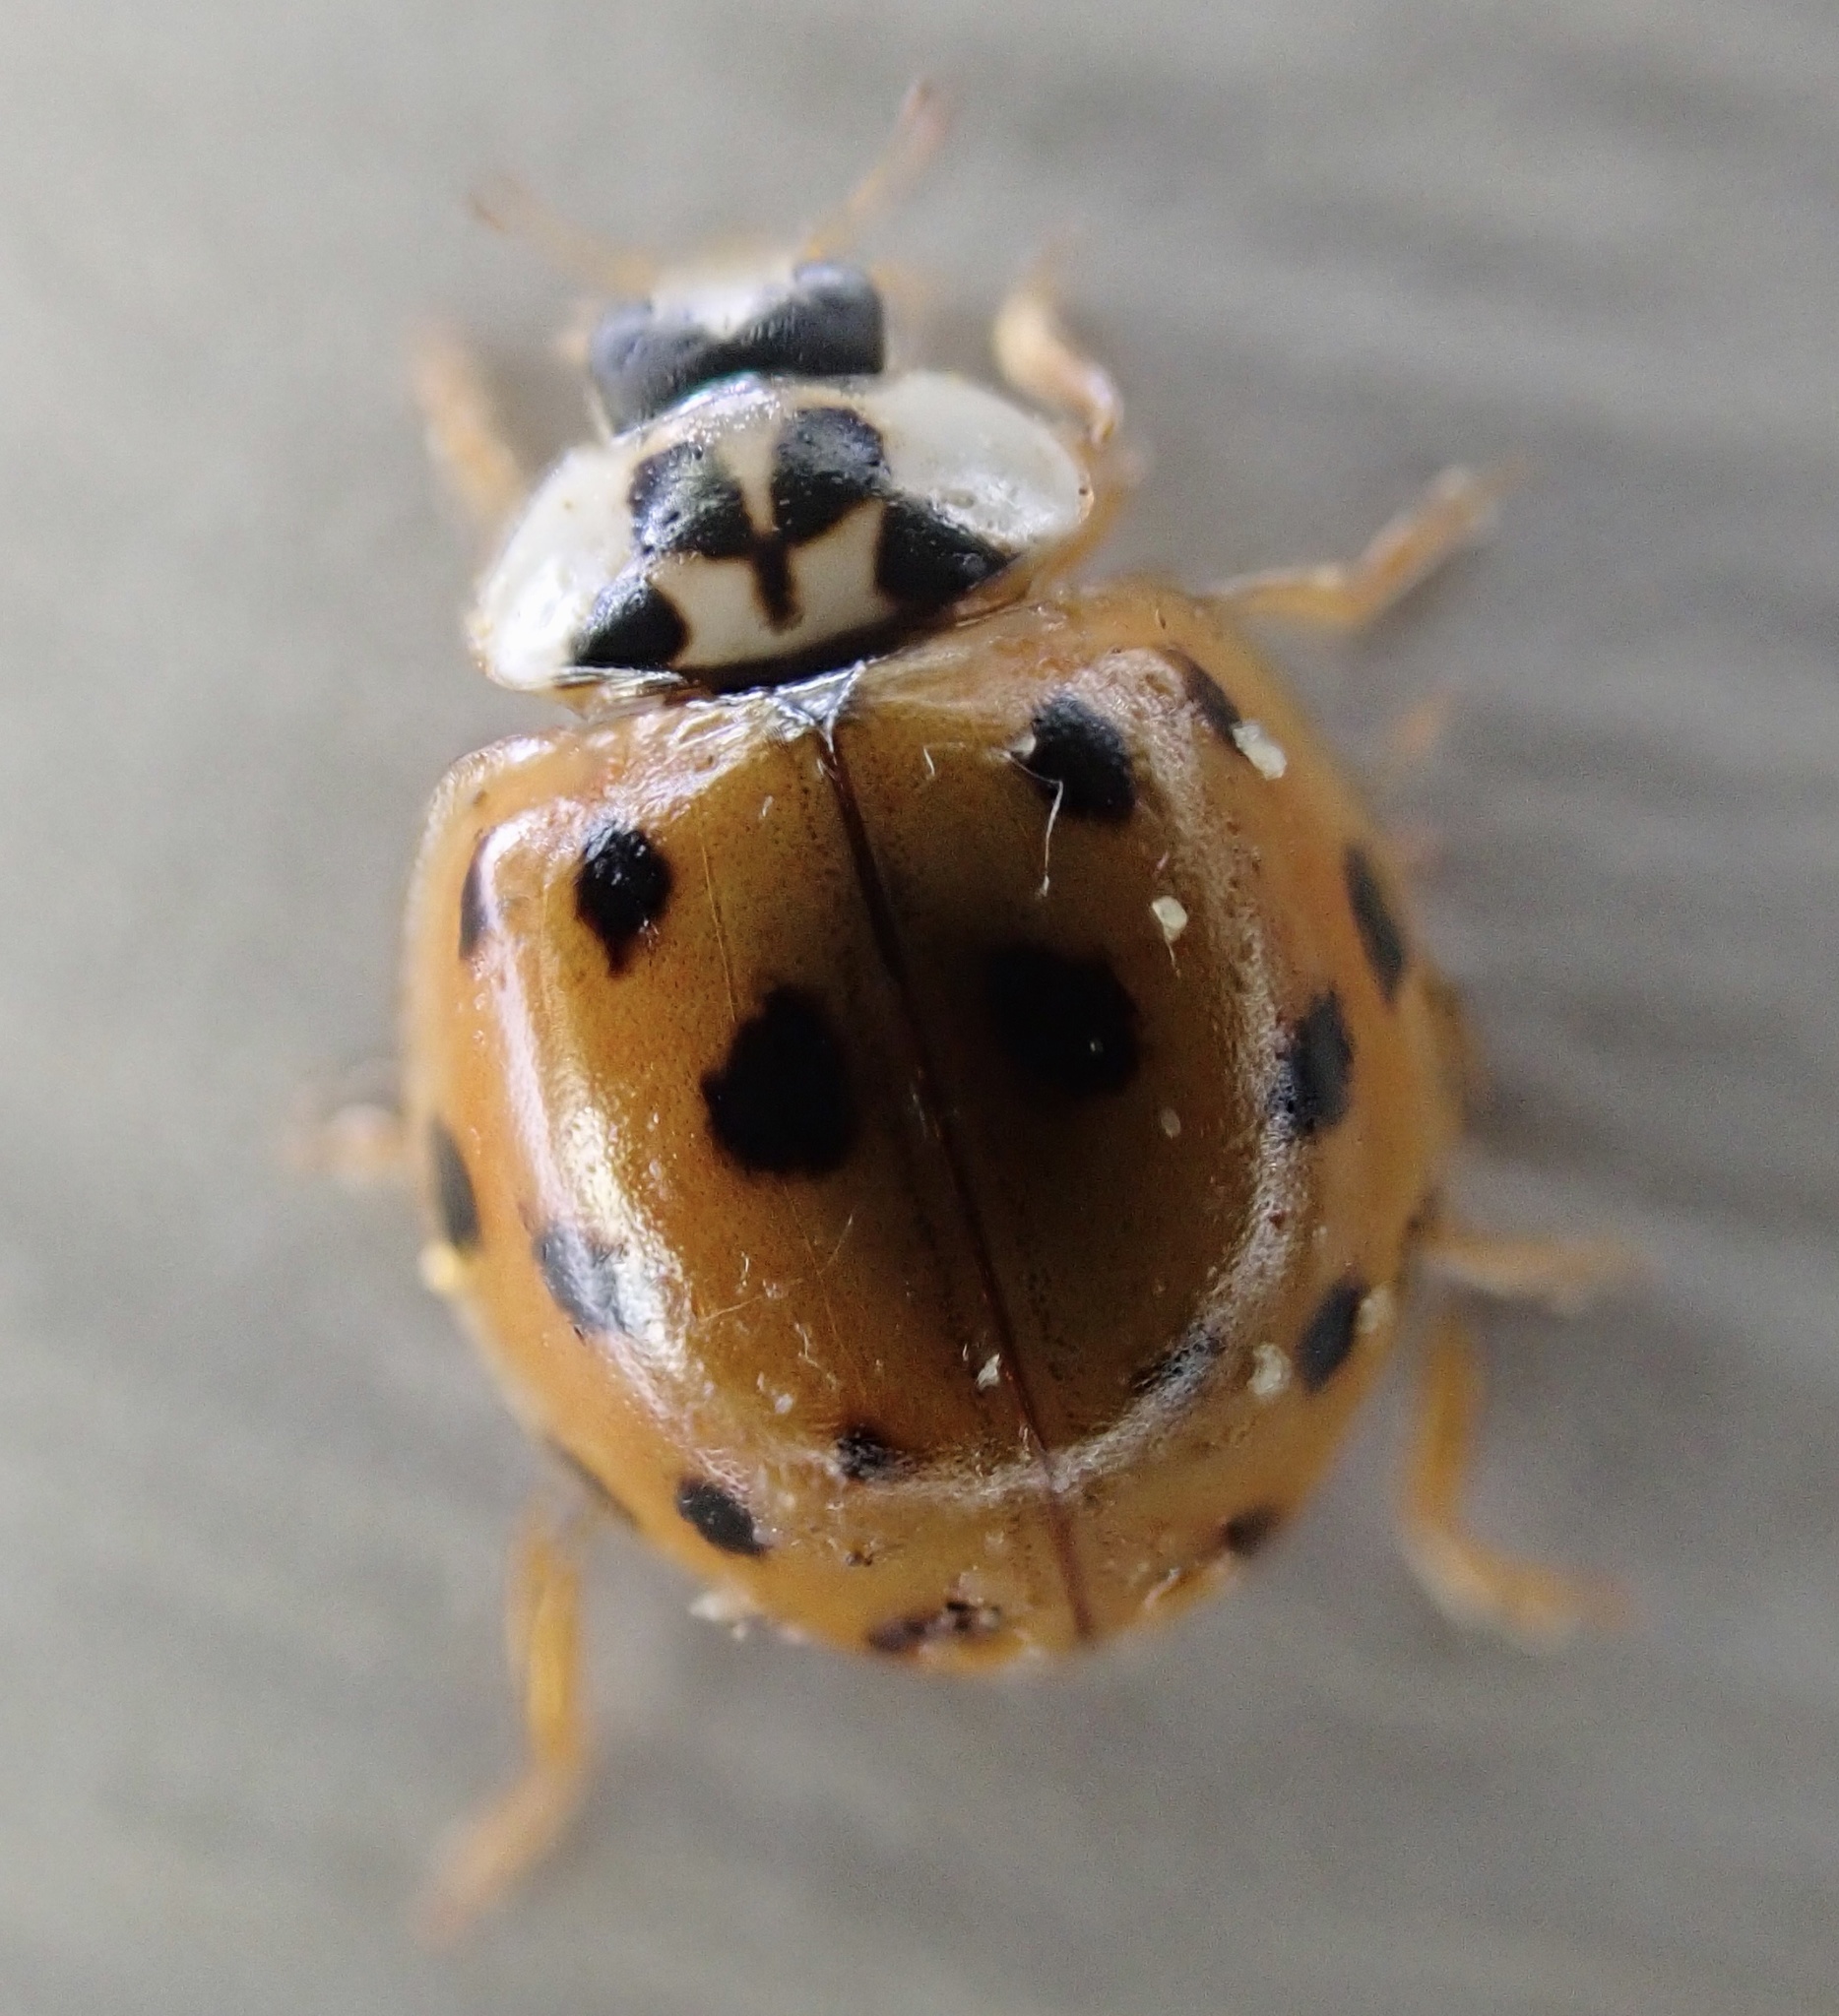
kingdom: Animalia
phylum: Arthropoda
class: Insecta
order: Coleoptera
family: Coccinellidae
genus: Harmonia
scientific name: Harmonia axyridis
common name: Harlequin ladybird
